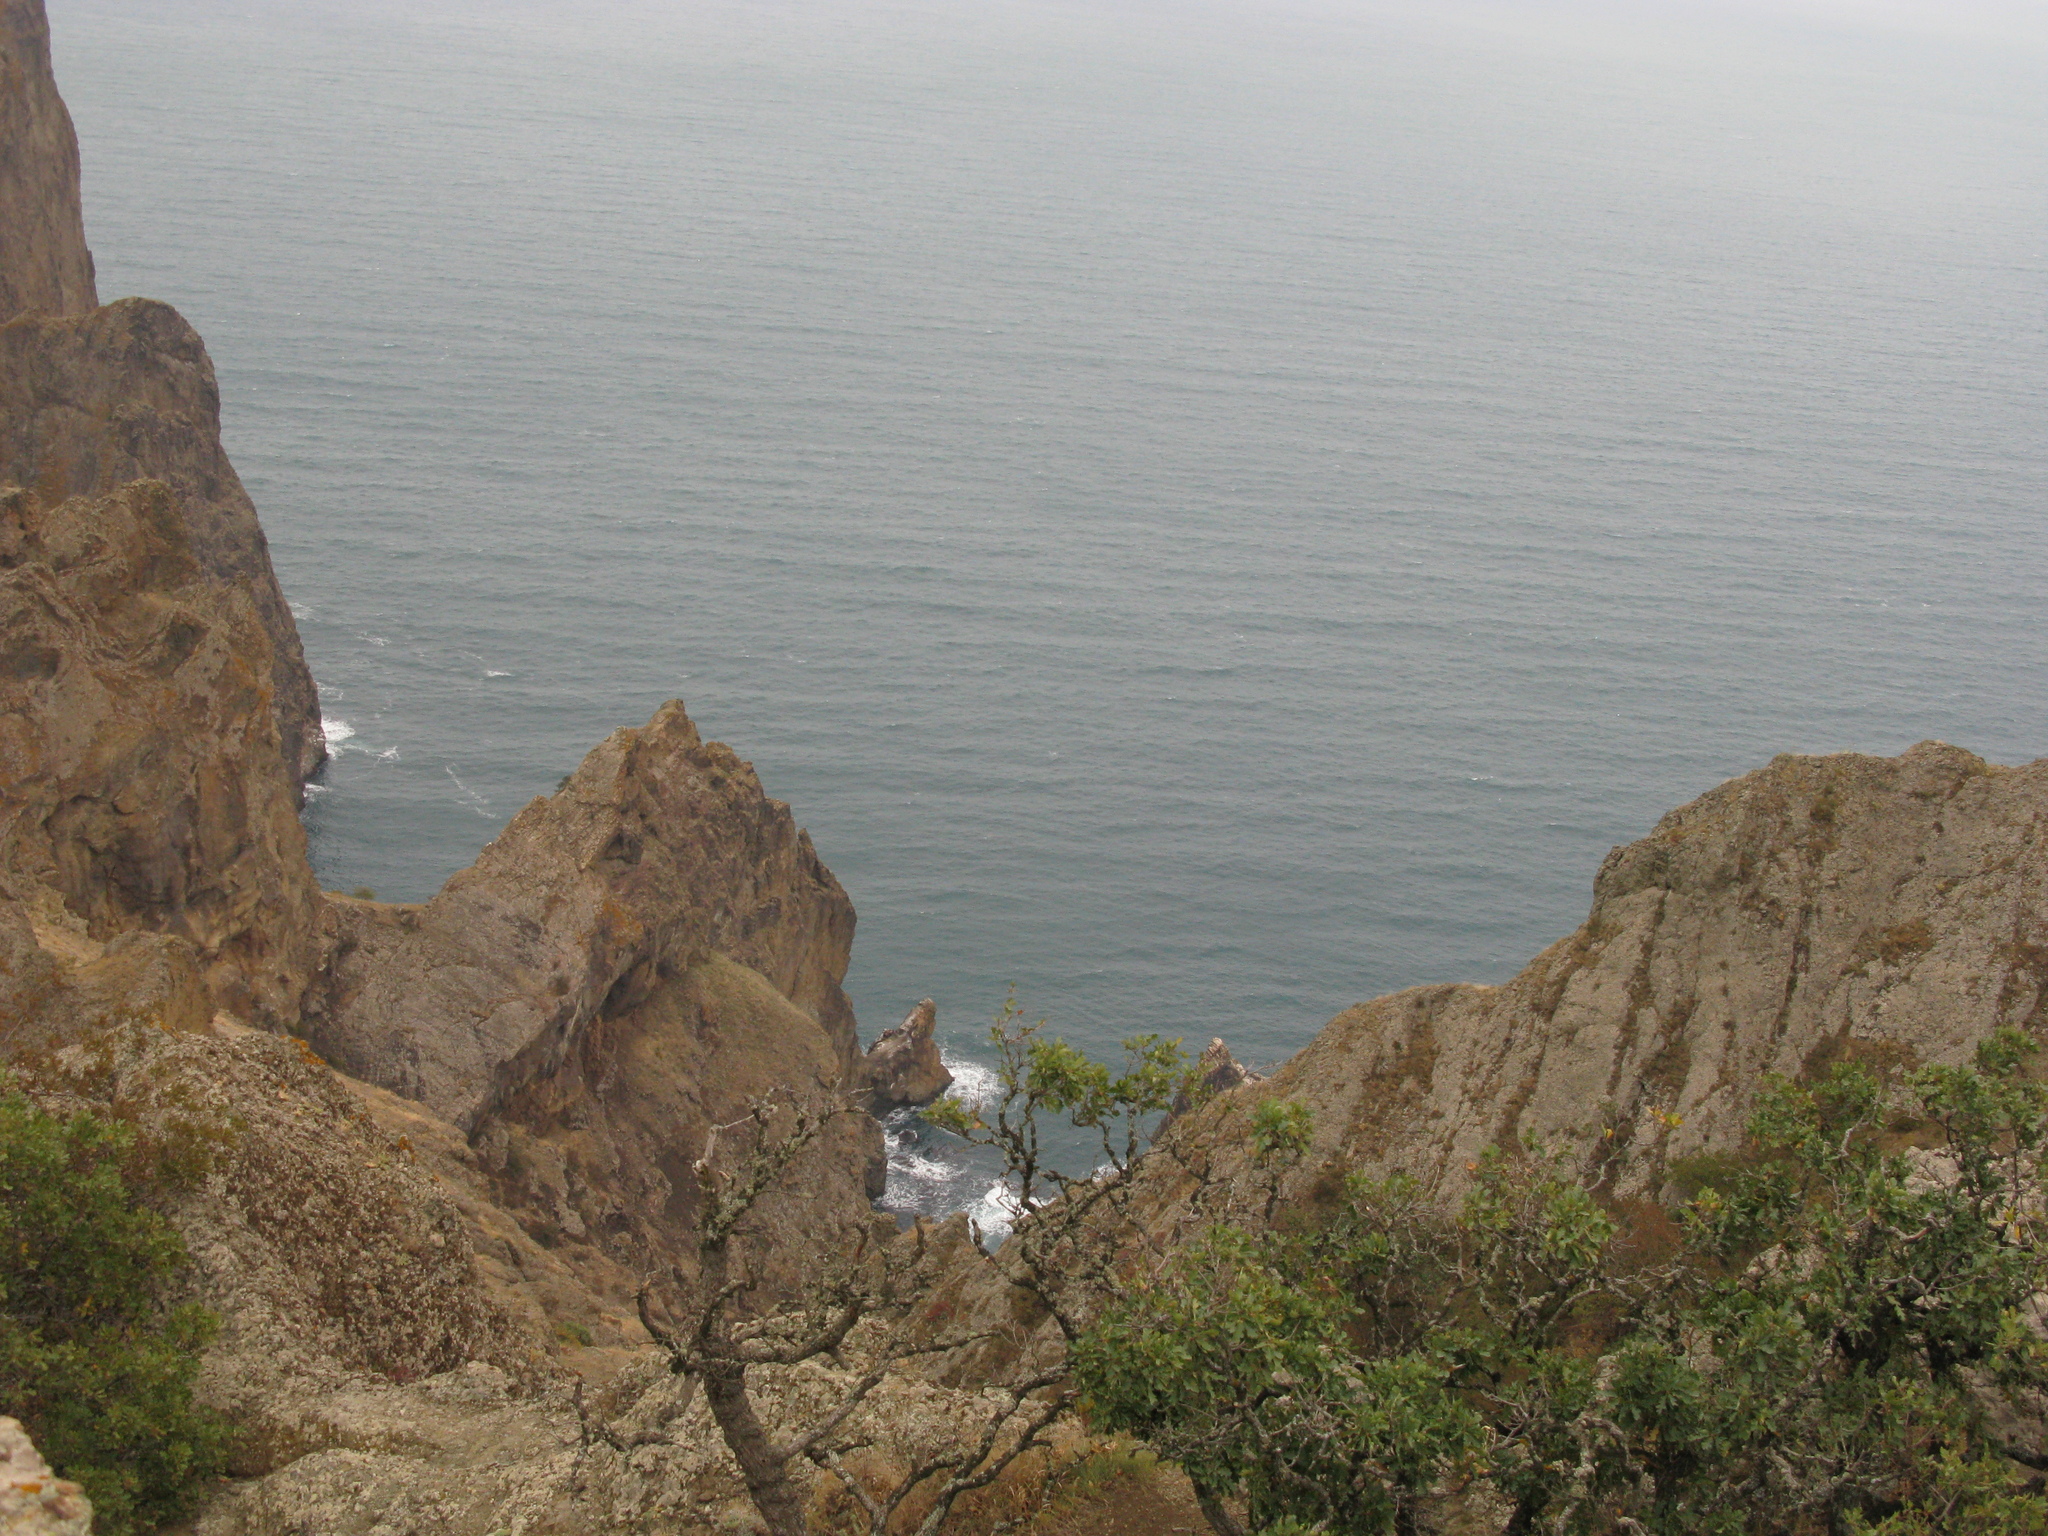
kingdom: Plantae
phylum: Tracheophyta
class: Magnoliopsida
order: Fagales
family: Fagaceae
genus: Quercus
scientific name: Quercus pubescens
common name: Downy oak
